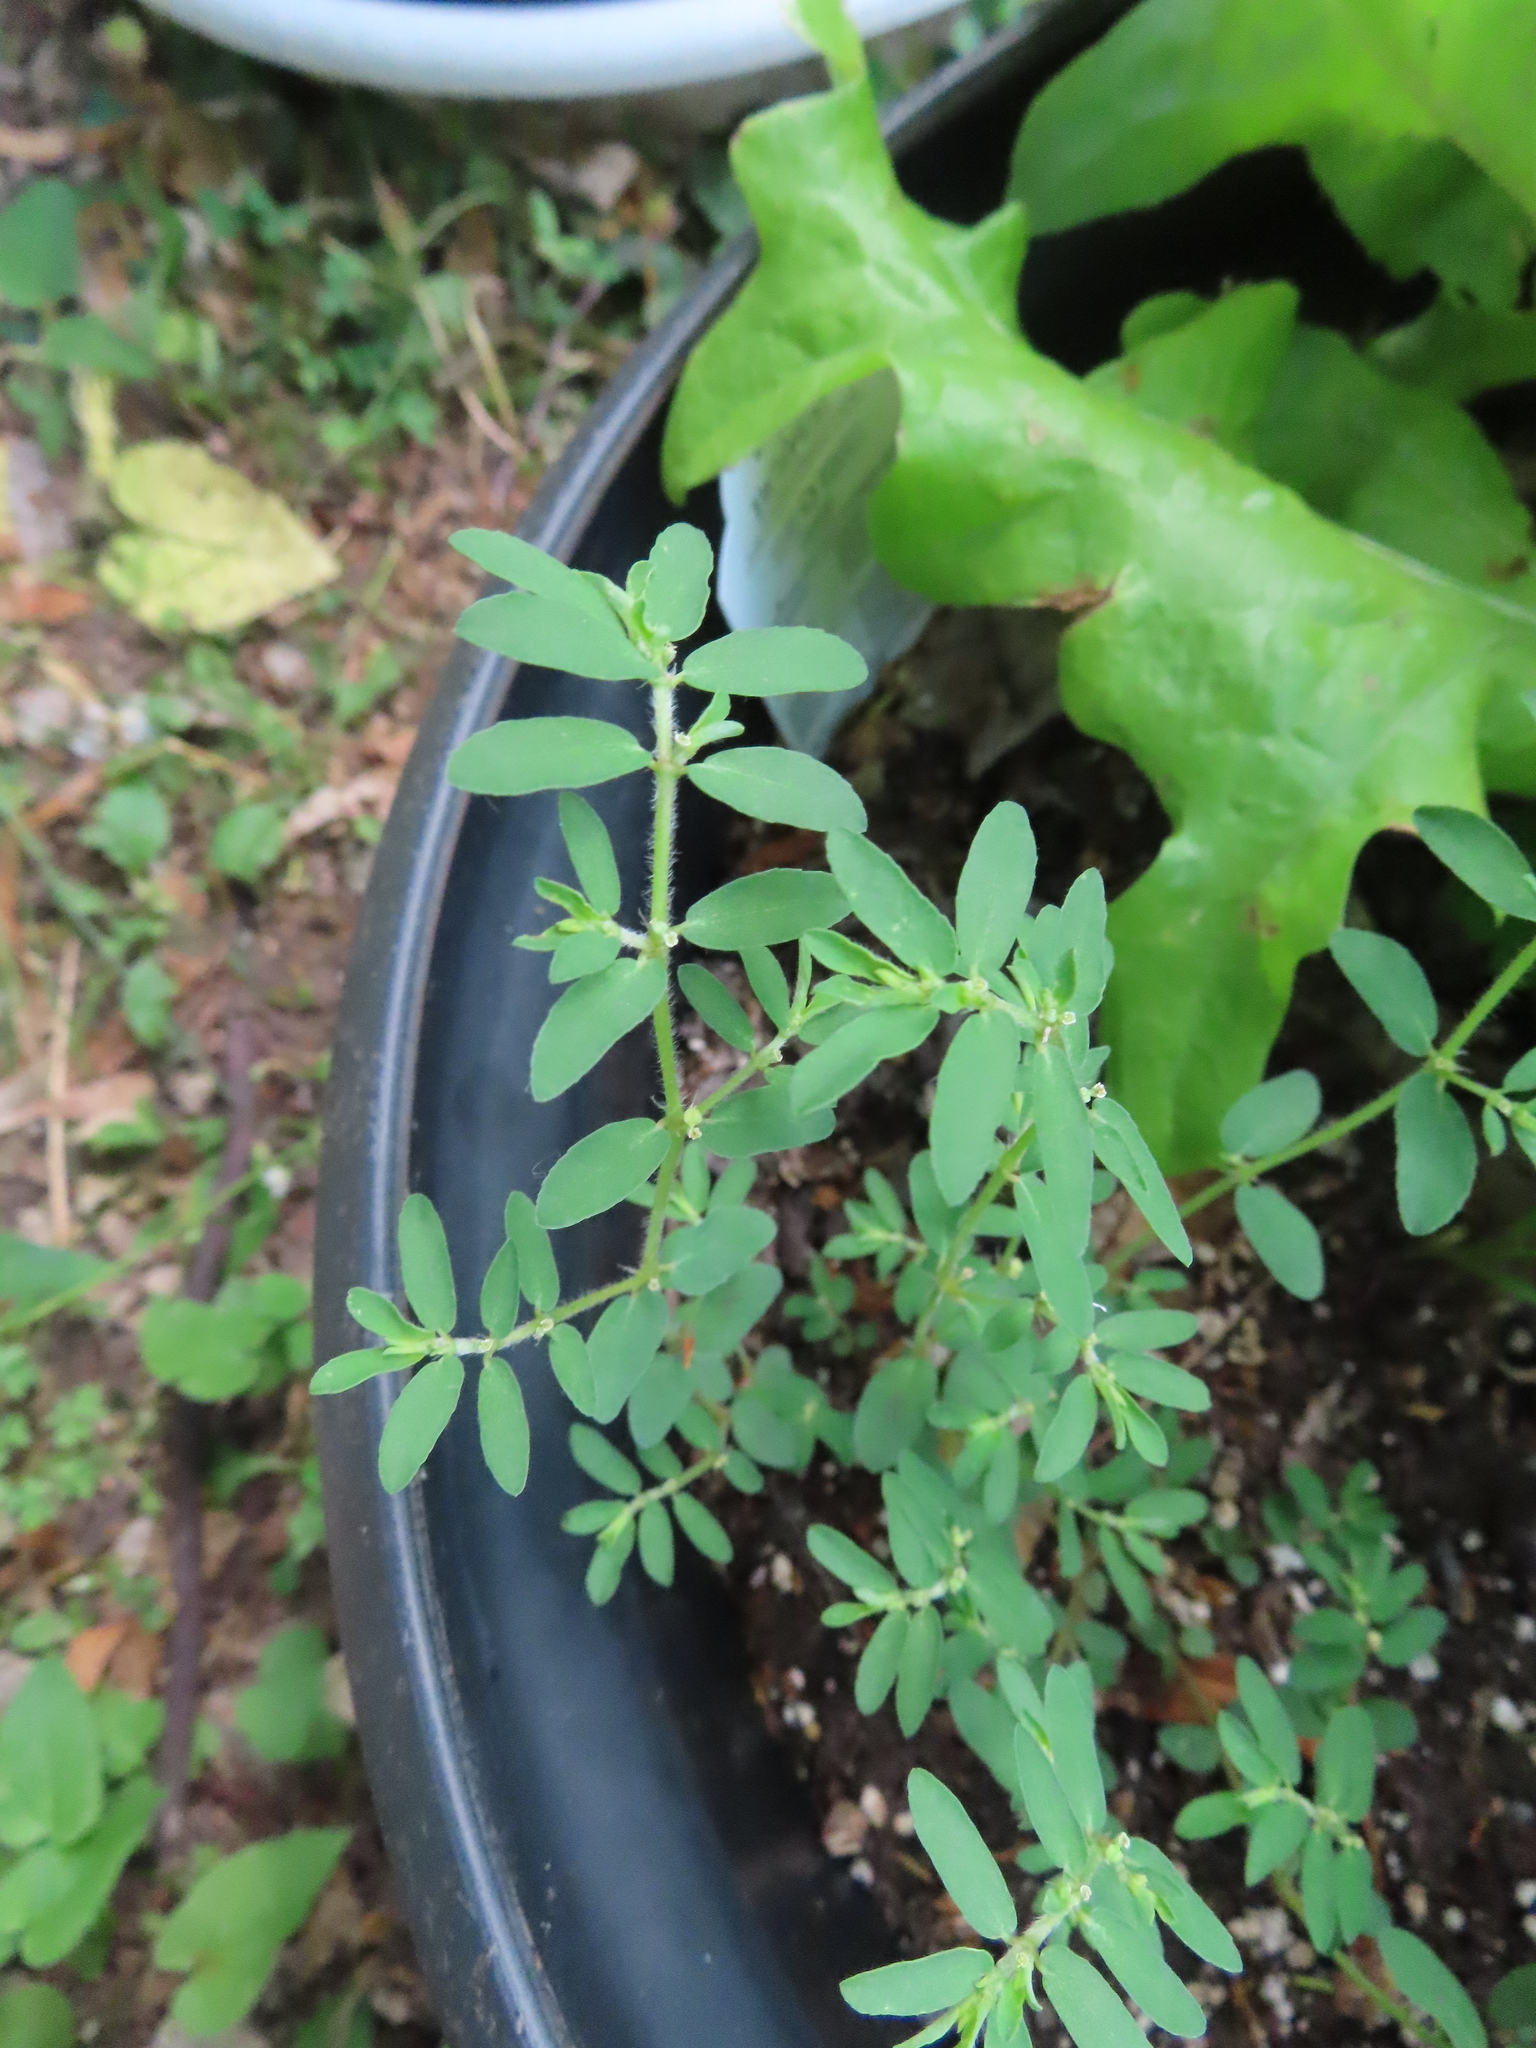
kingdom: Plantae
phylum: Tracheophyta
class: Magnoliopsida
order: Malpighiales
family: Euphorbiaceae
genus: Euphorbia
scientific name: Euphorbia maculata
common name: Spotted spurge
